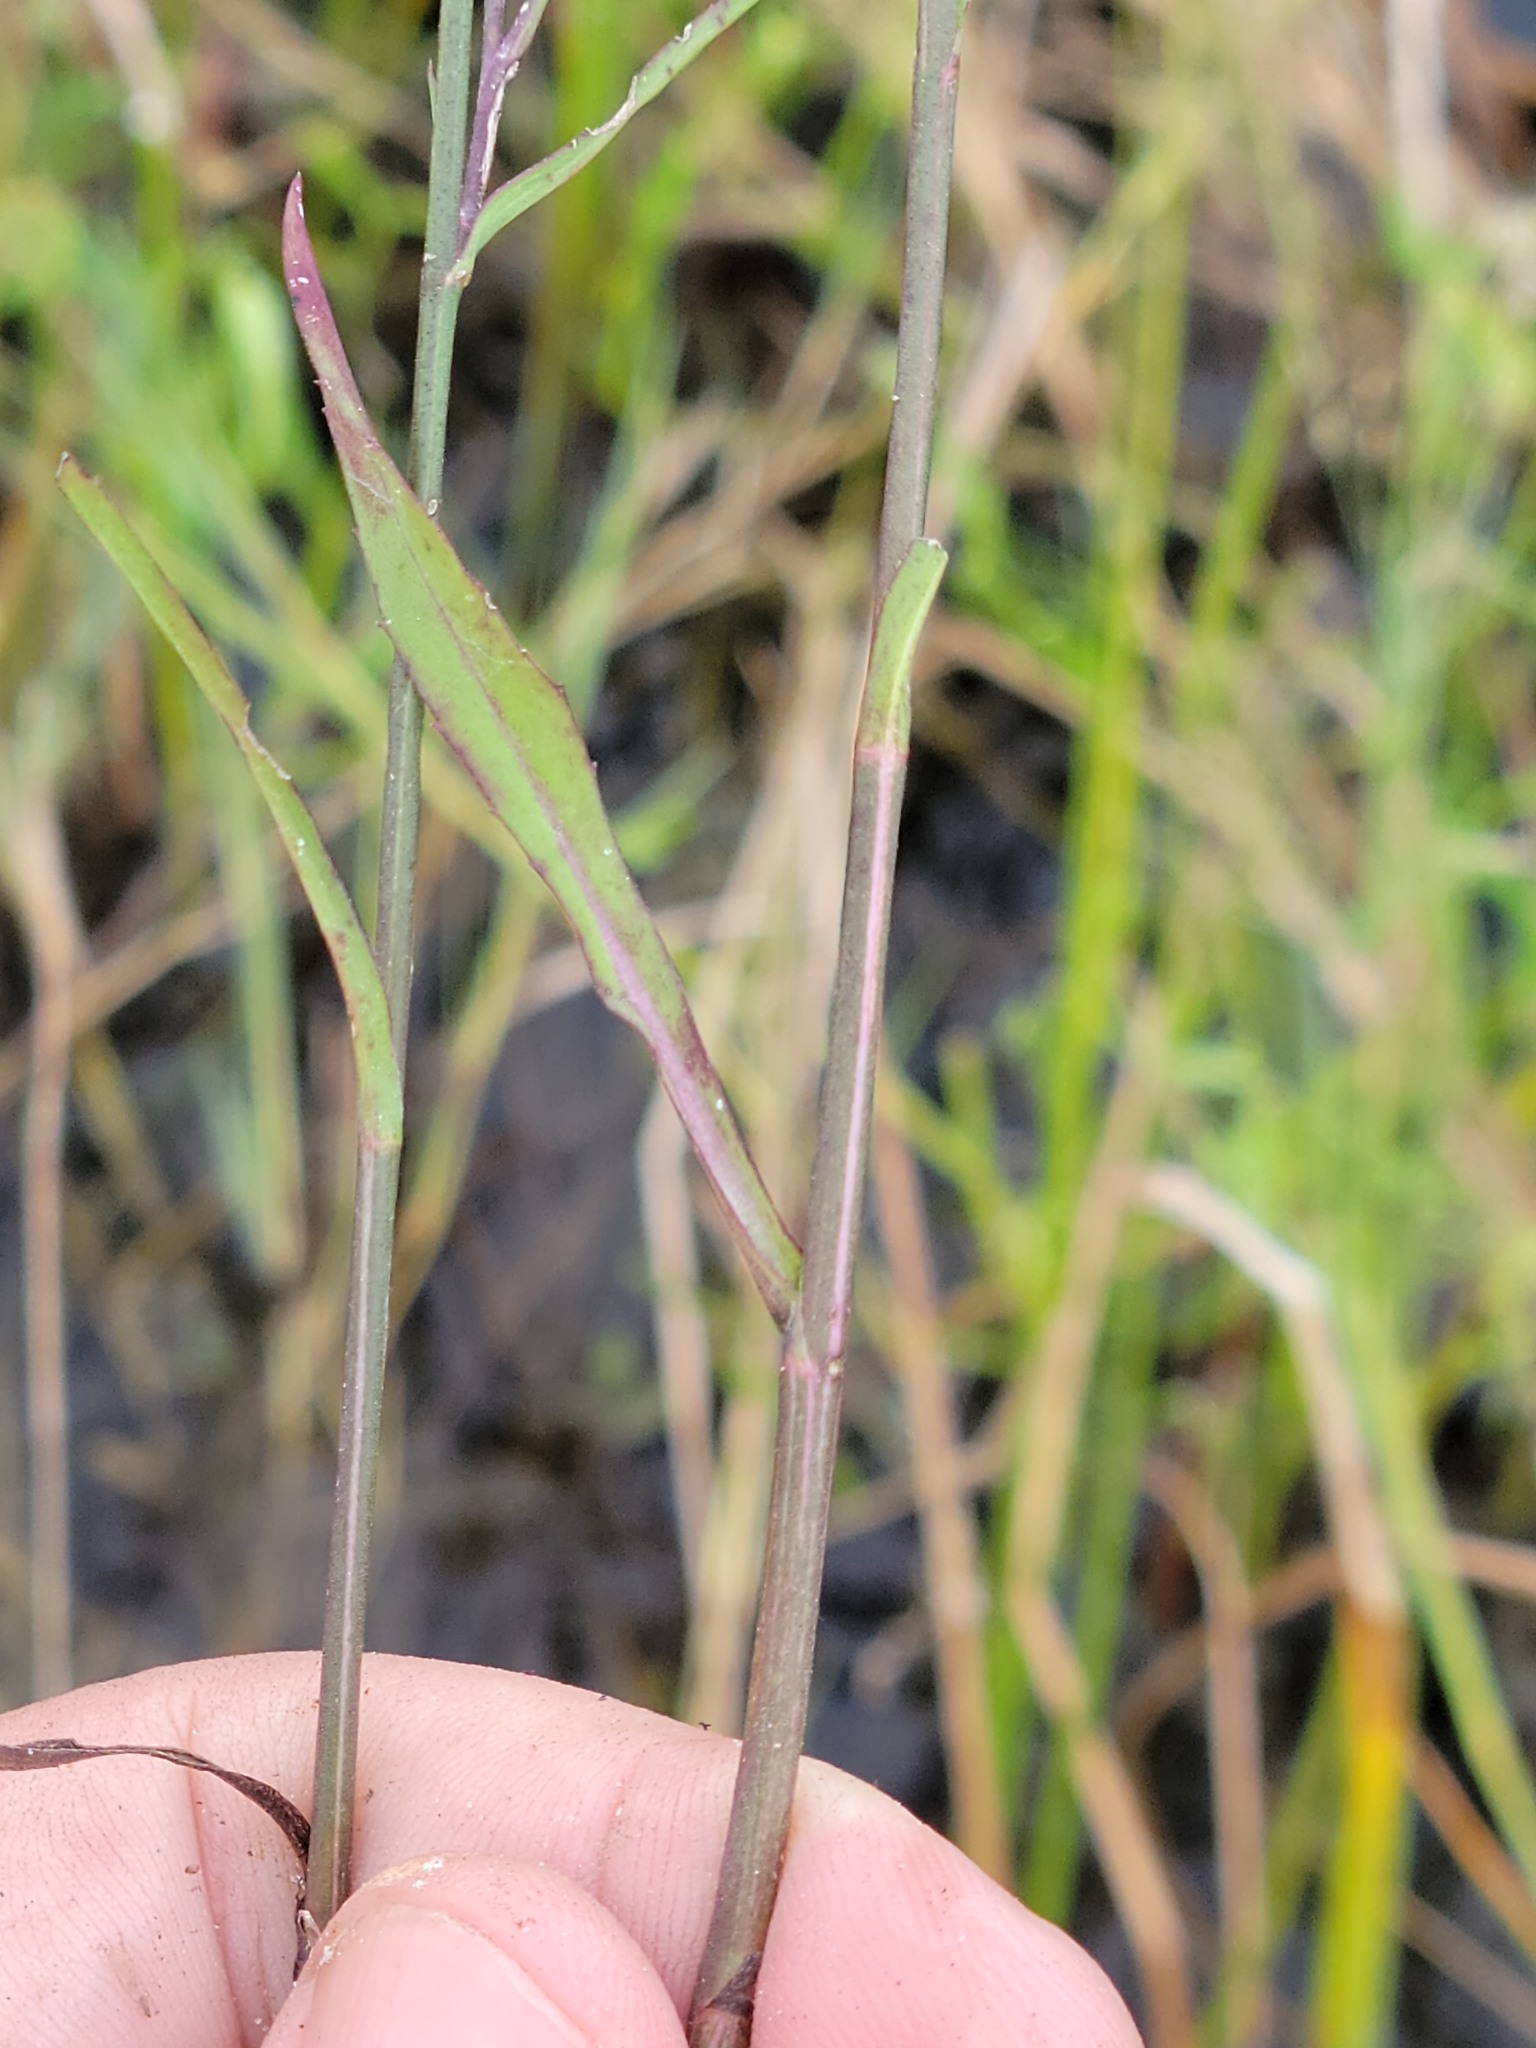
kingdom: Plantae
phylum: Tracheophyta
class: Magnoliopsida
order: Asterales
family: Asteraceae
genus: Symphyotrichum
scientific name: Symphyotrichum subulatum
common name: Annual saltmarsh aster
